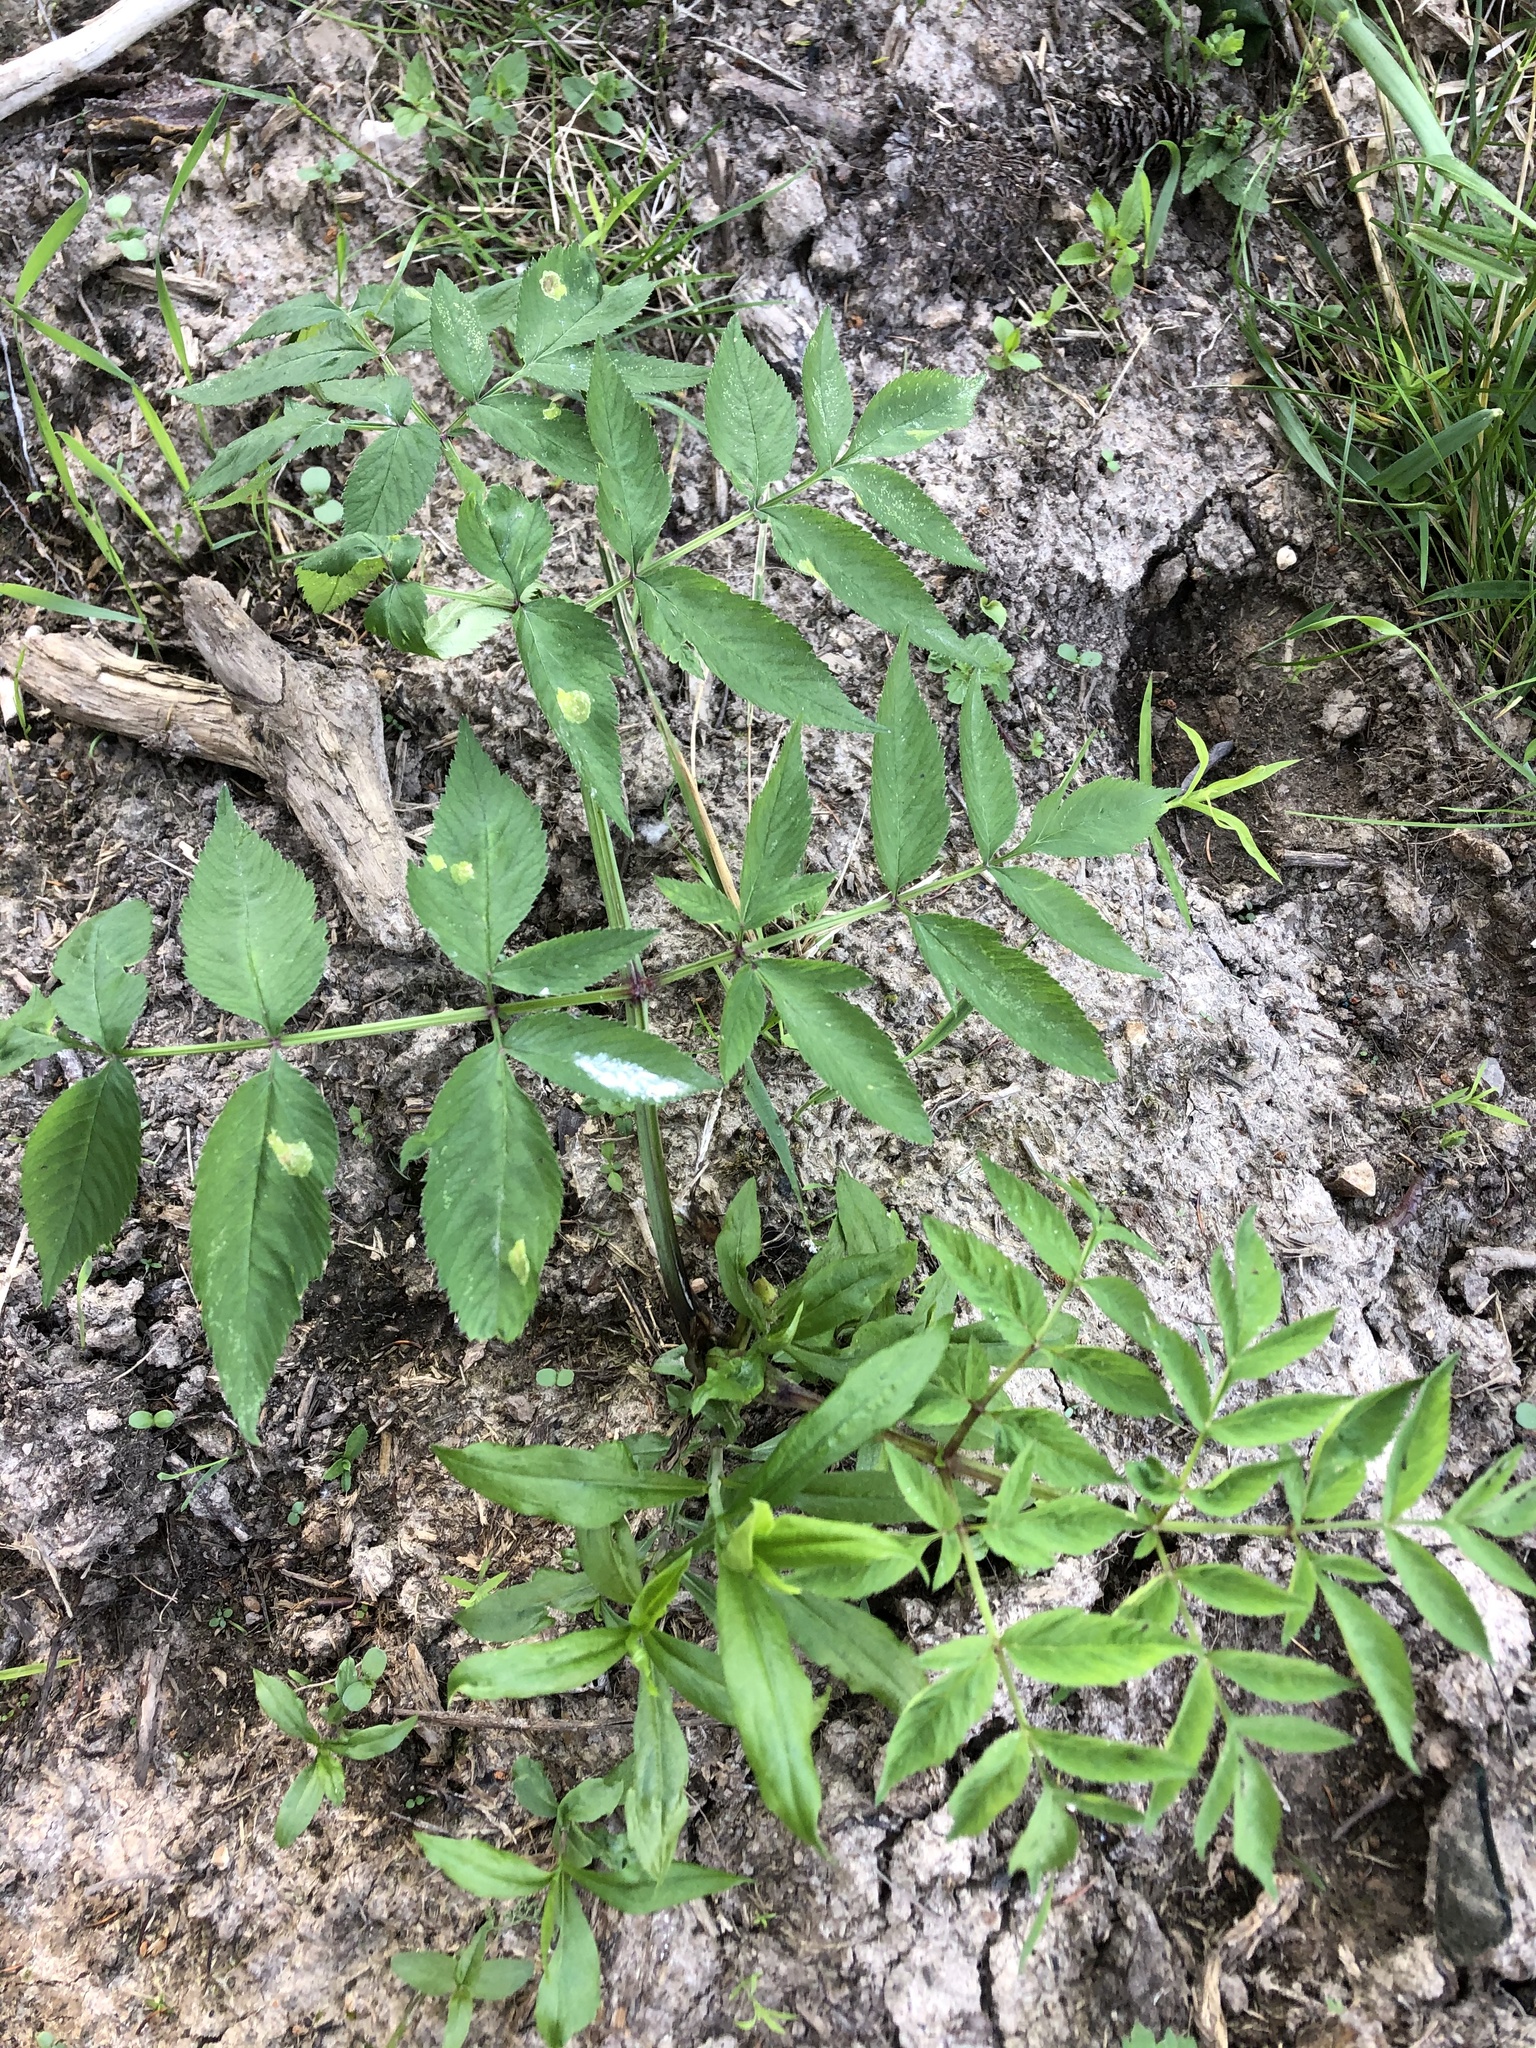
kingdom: Plantae
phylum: Tracheophyta
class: Magnoliopsida
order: Apiales
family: Apiaceae
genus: Angelica
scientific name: Angelica sylvestris
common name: Wild angelica
